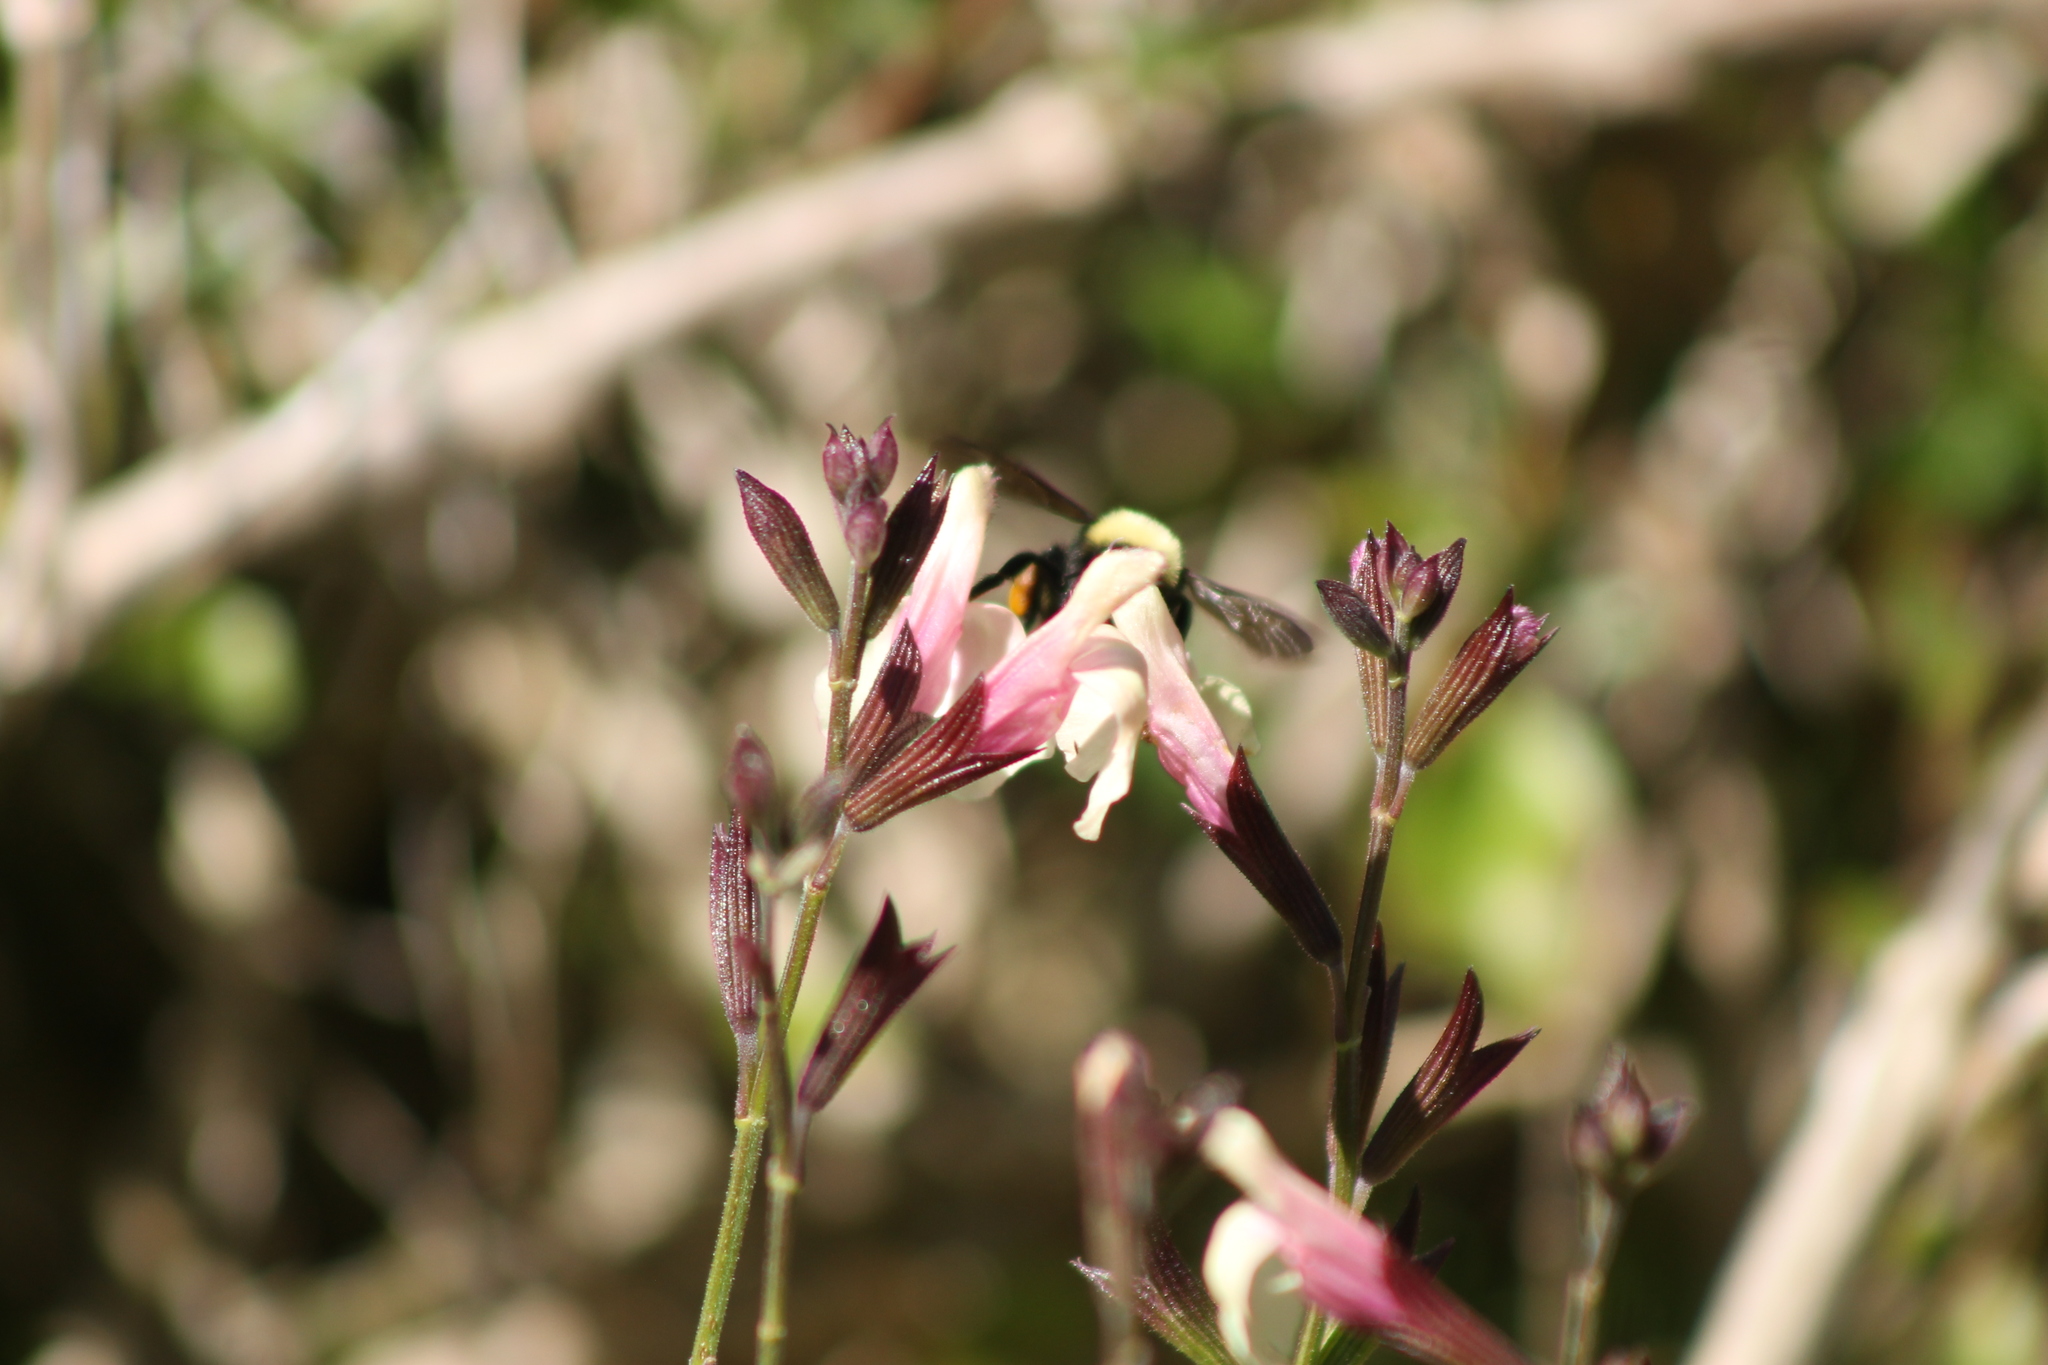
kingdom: Animalia
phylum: Arthropoda
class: Insecta
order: Hymenoptera
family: Apidae
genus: Bombus
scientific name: Bombus californicus
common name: California bumble bee
